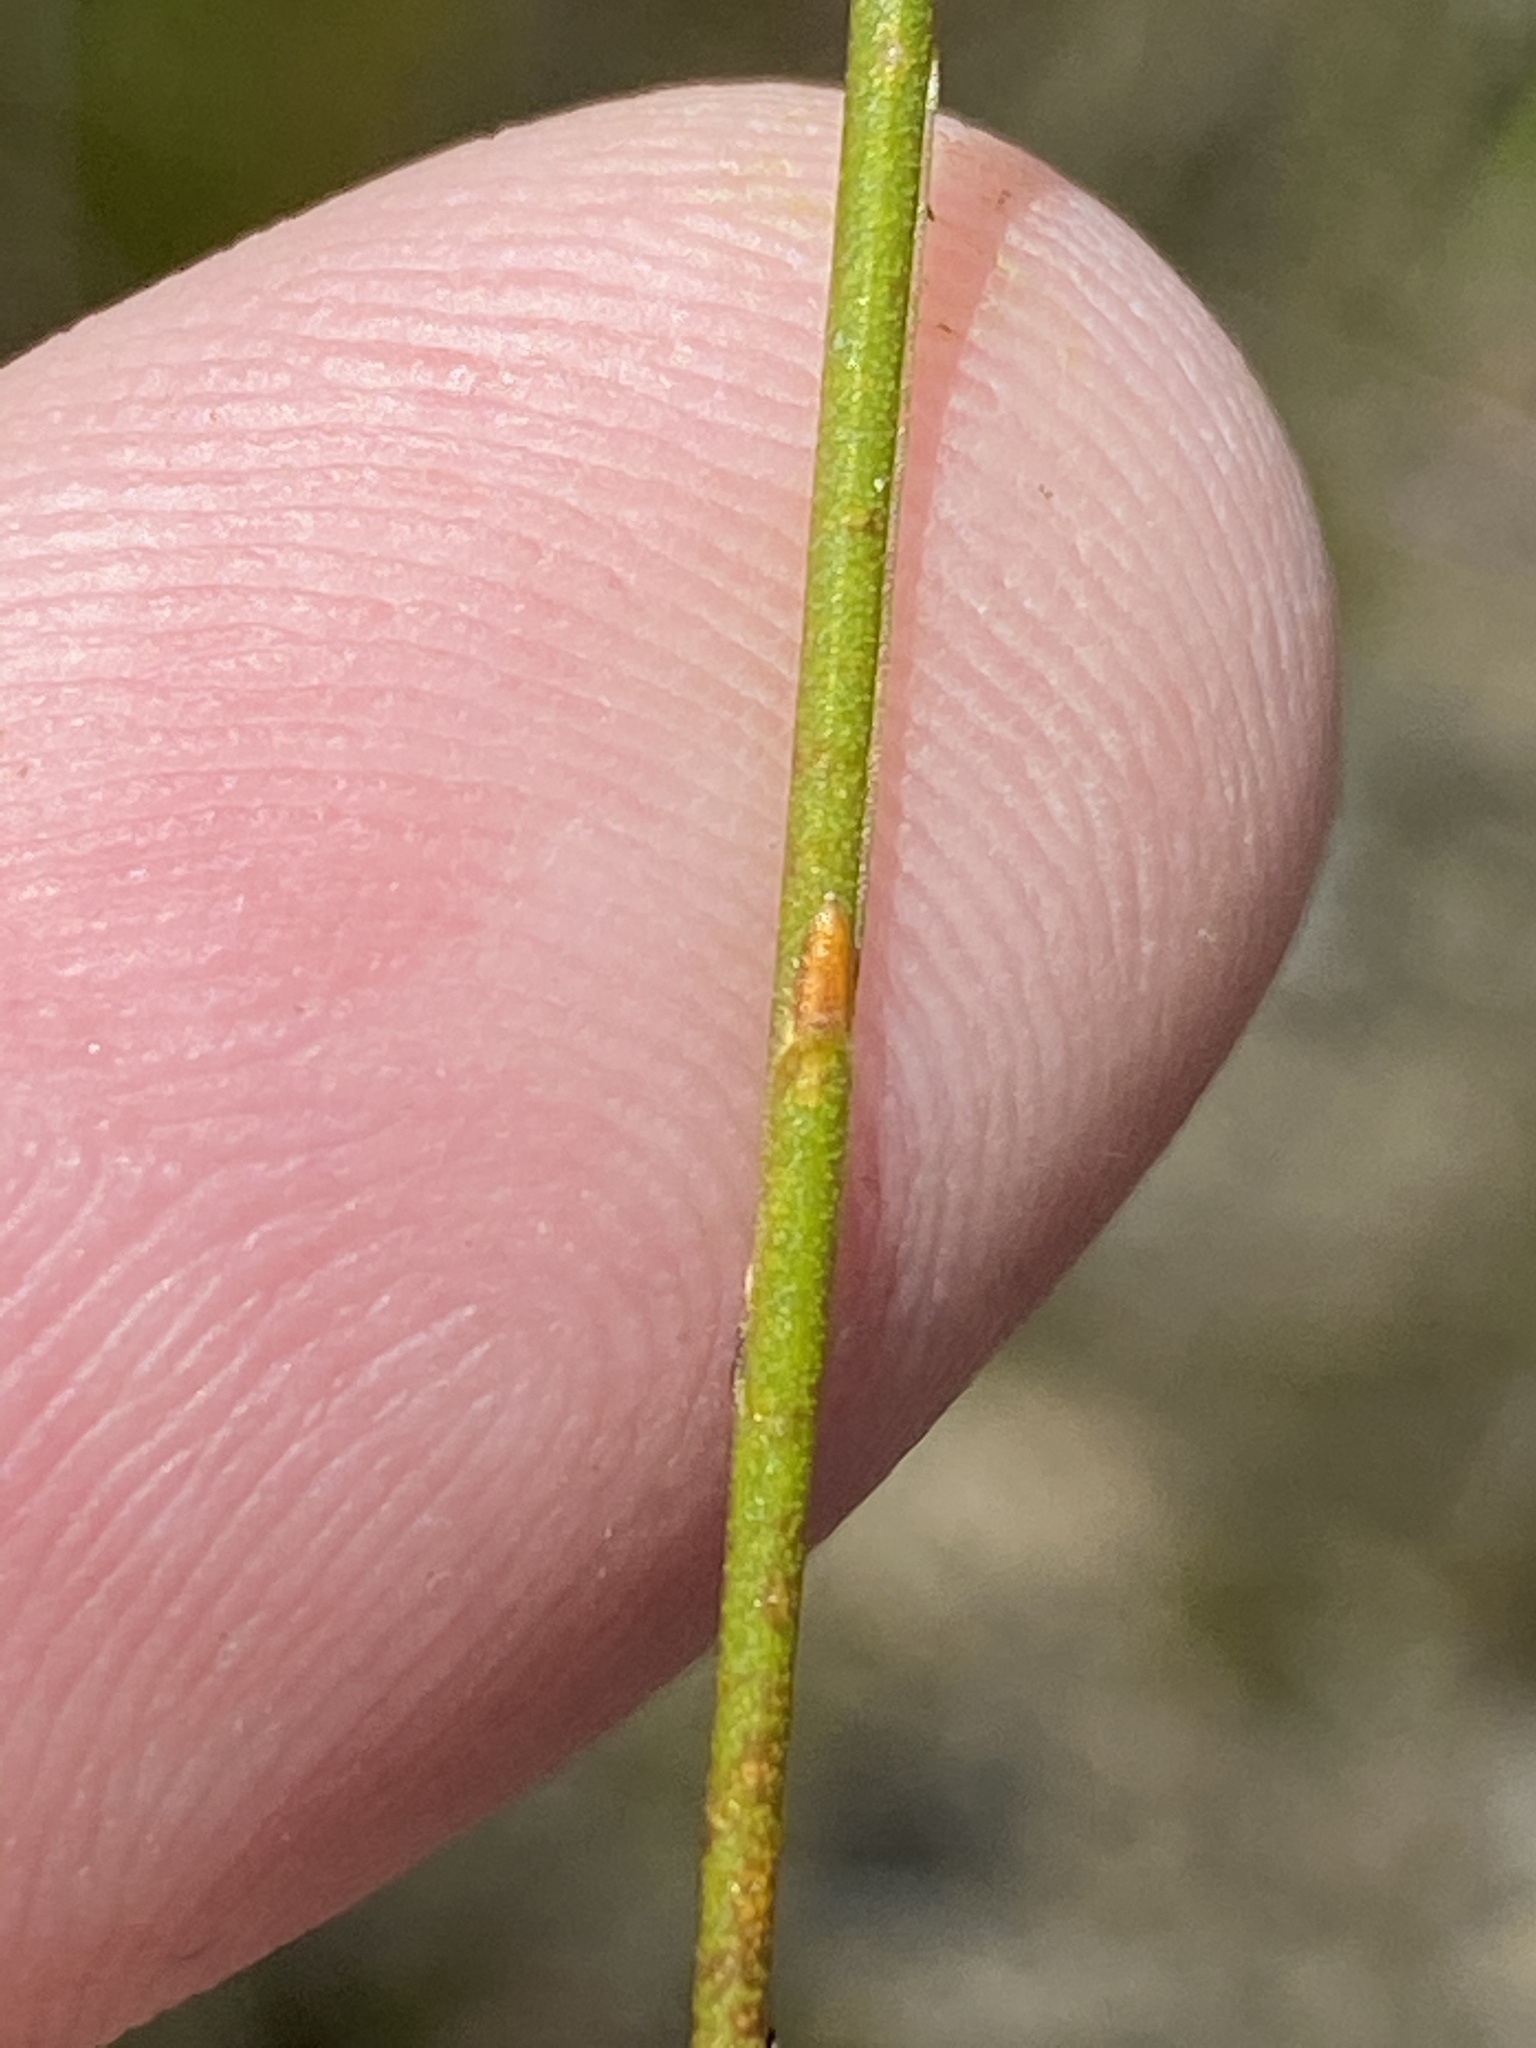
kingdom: Plantae
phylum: Tracheophyta
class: Magnoliopsida
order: Asterales
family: Campanulaceae
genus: Siphocodon
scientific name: Siphocodon spartioides
